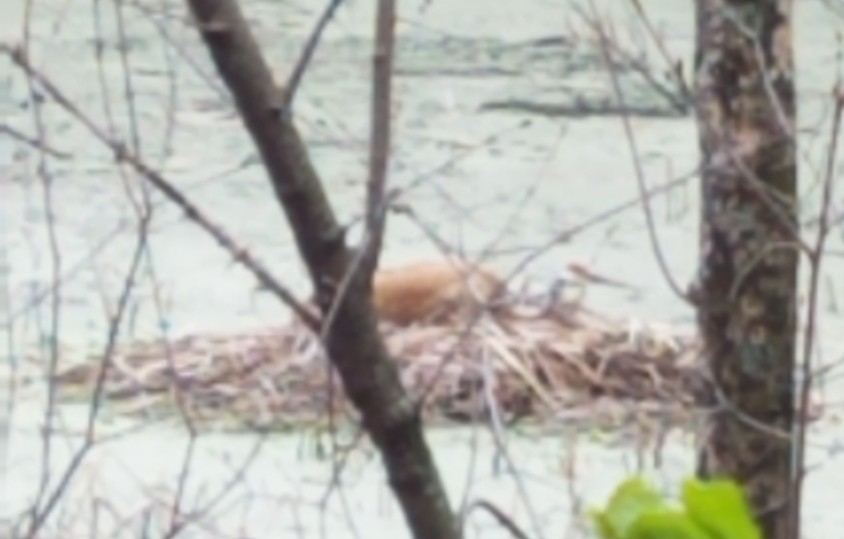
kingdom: Animalia
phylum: Chordata
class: Aves
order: Gruiformes
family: Gruidae
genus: Grus
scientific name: Grus canadensis
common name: Sandhill crane
